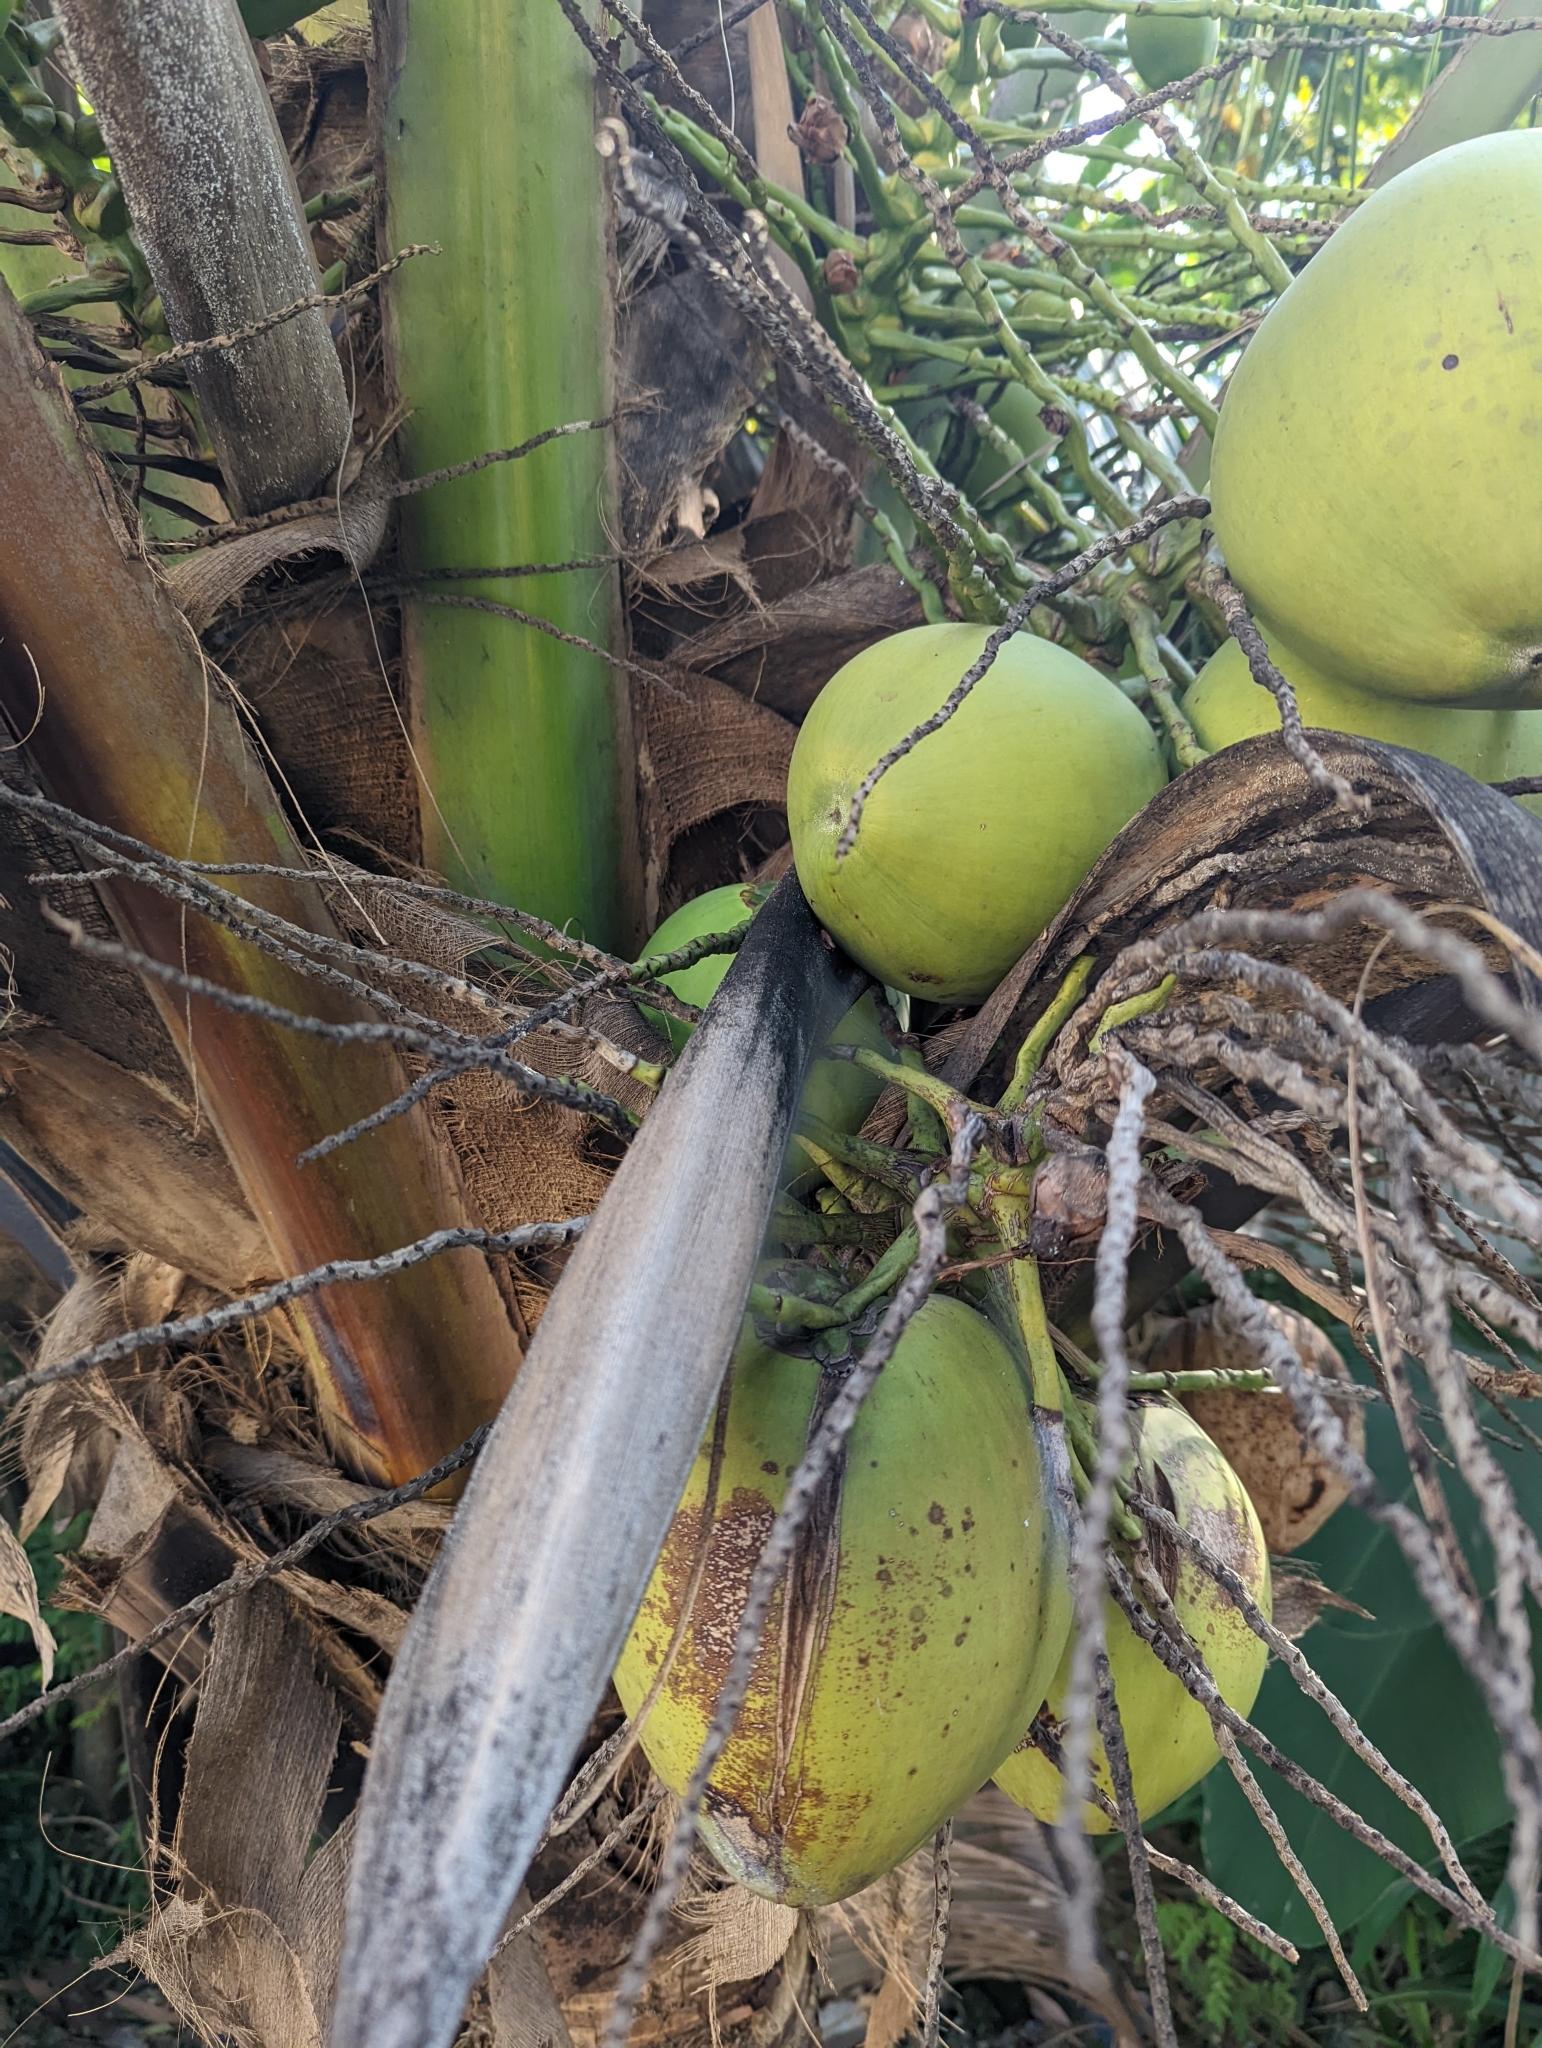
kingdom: Plantae
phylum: Tracheophyta
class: Liliopsida
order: Arecales
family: Arecaceae
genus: Cocos
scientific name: Cocos nucifera
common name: Coconut palm
